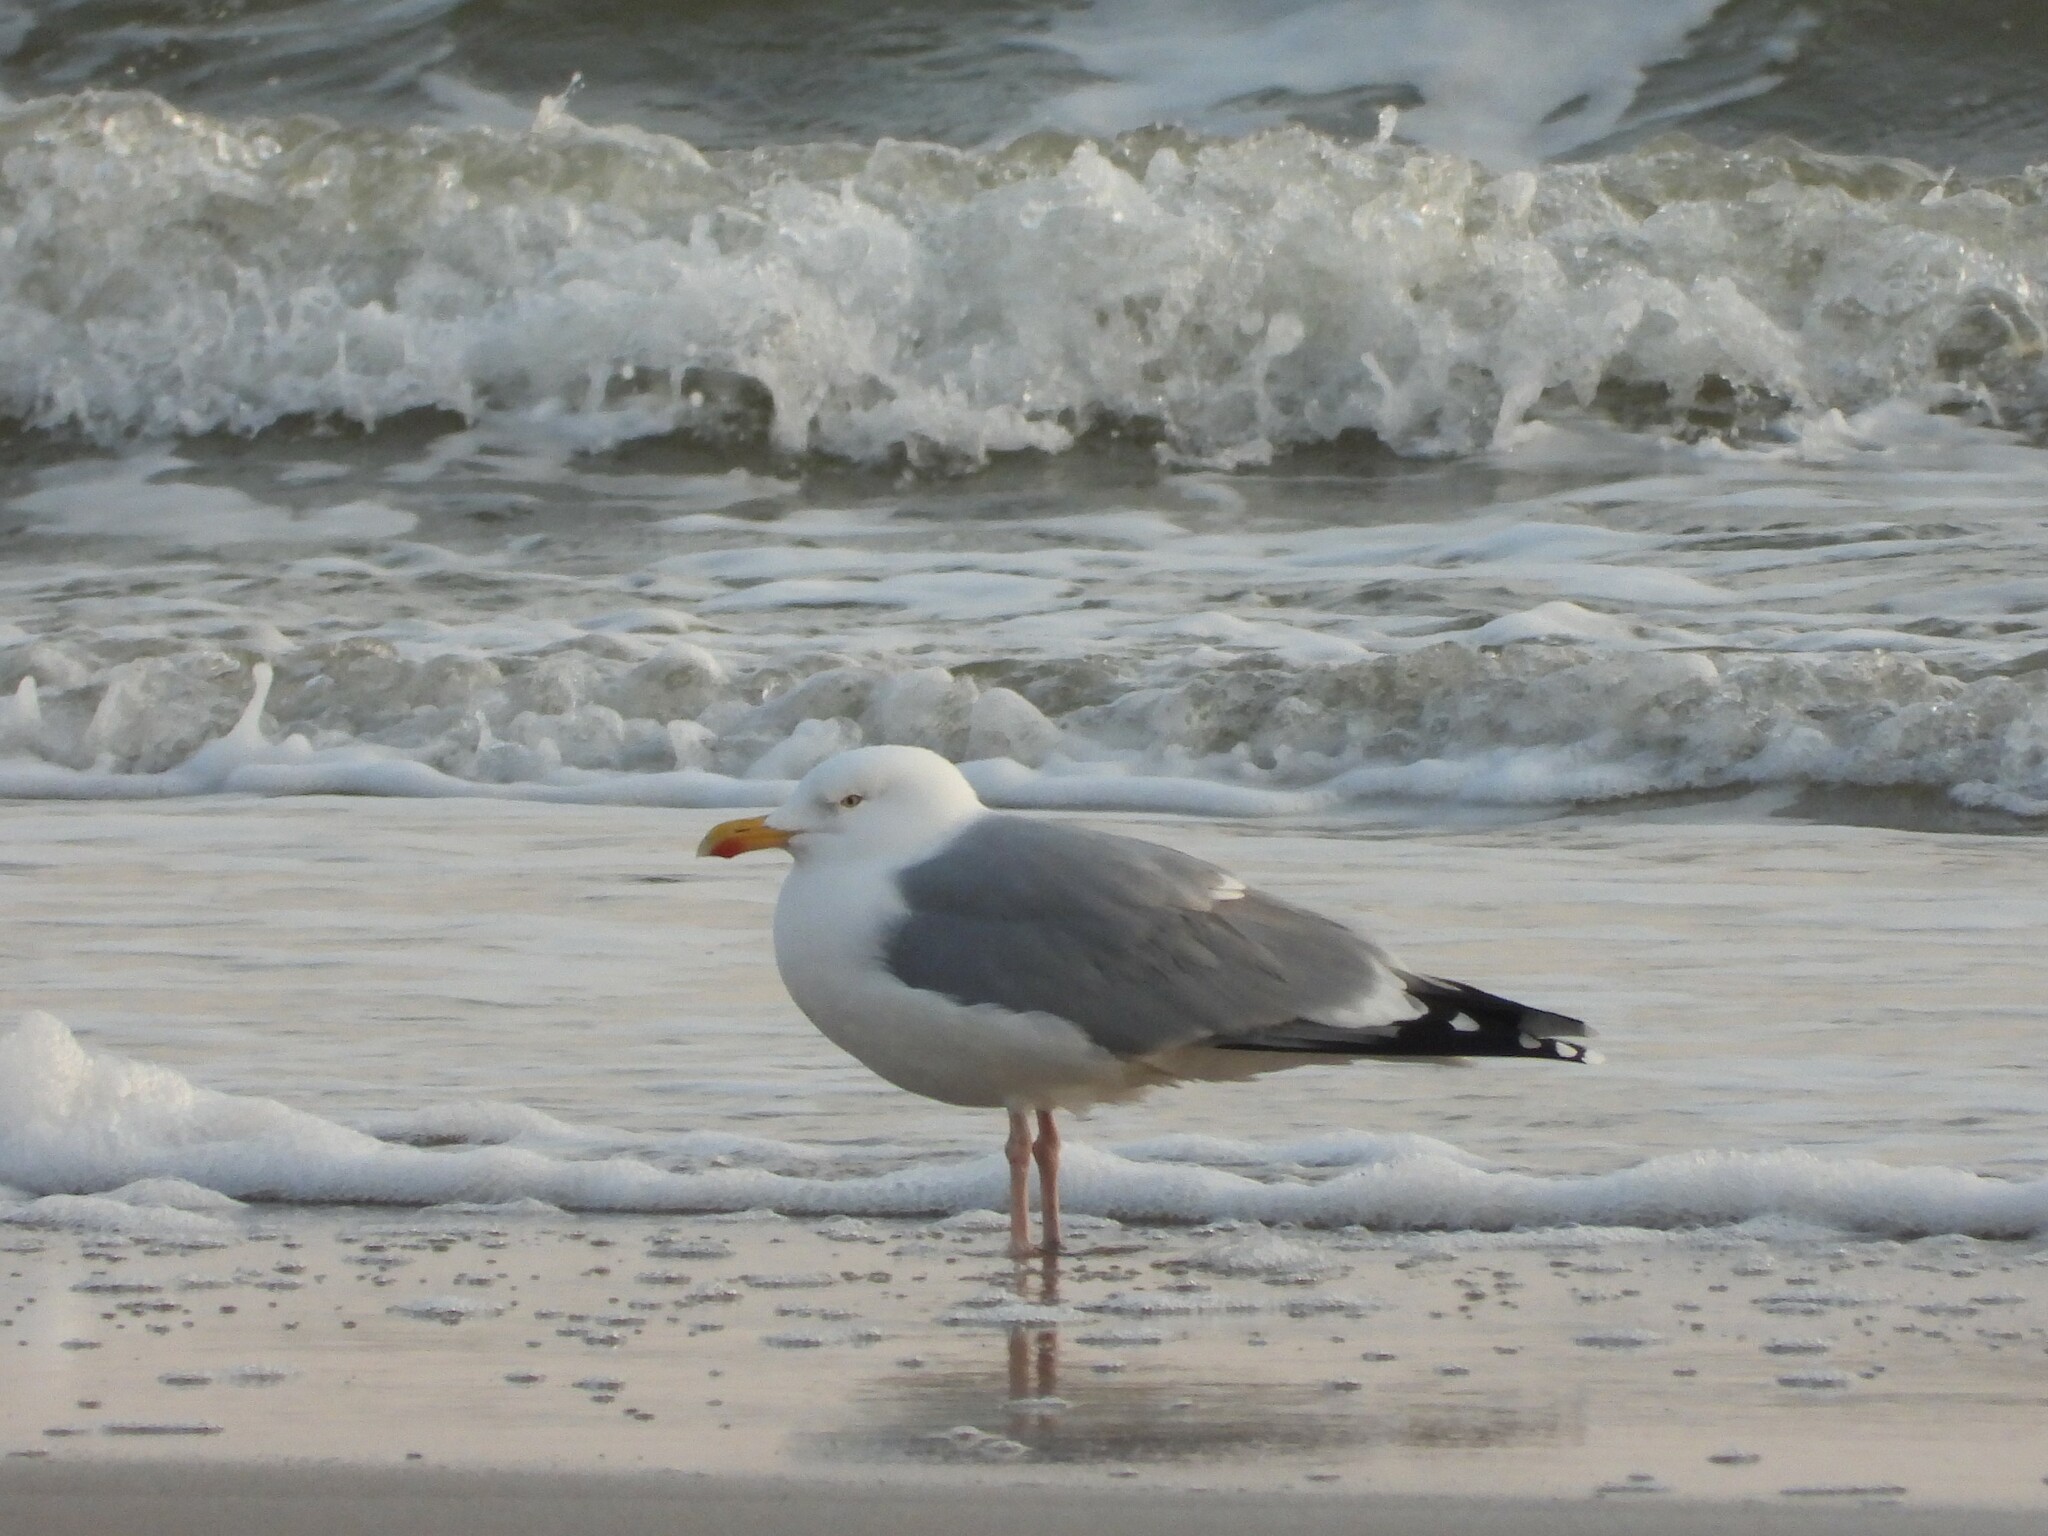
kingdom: Animalia
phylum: Chordata
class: Aves
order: Charadriiformes
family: Laridae
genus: Larus
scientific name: Larus argentatus
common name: Herring gull
